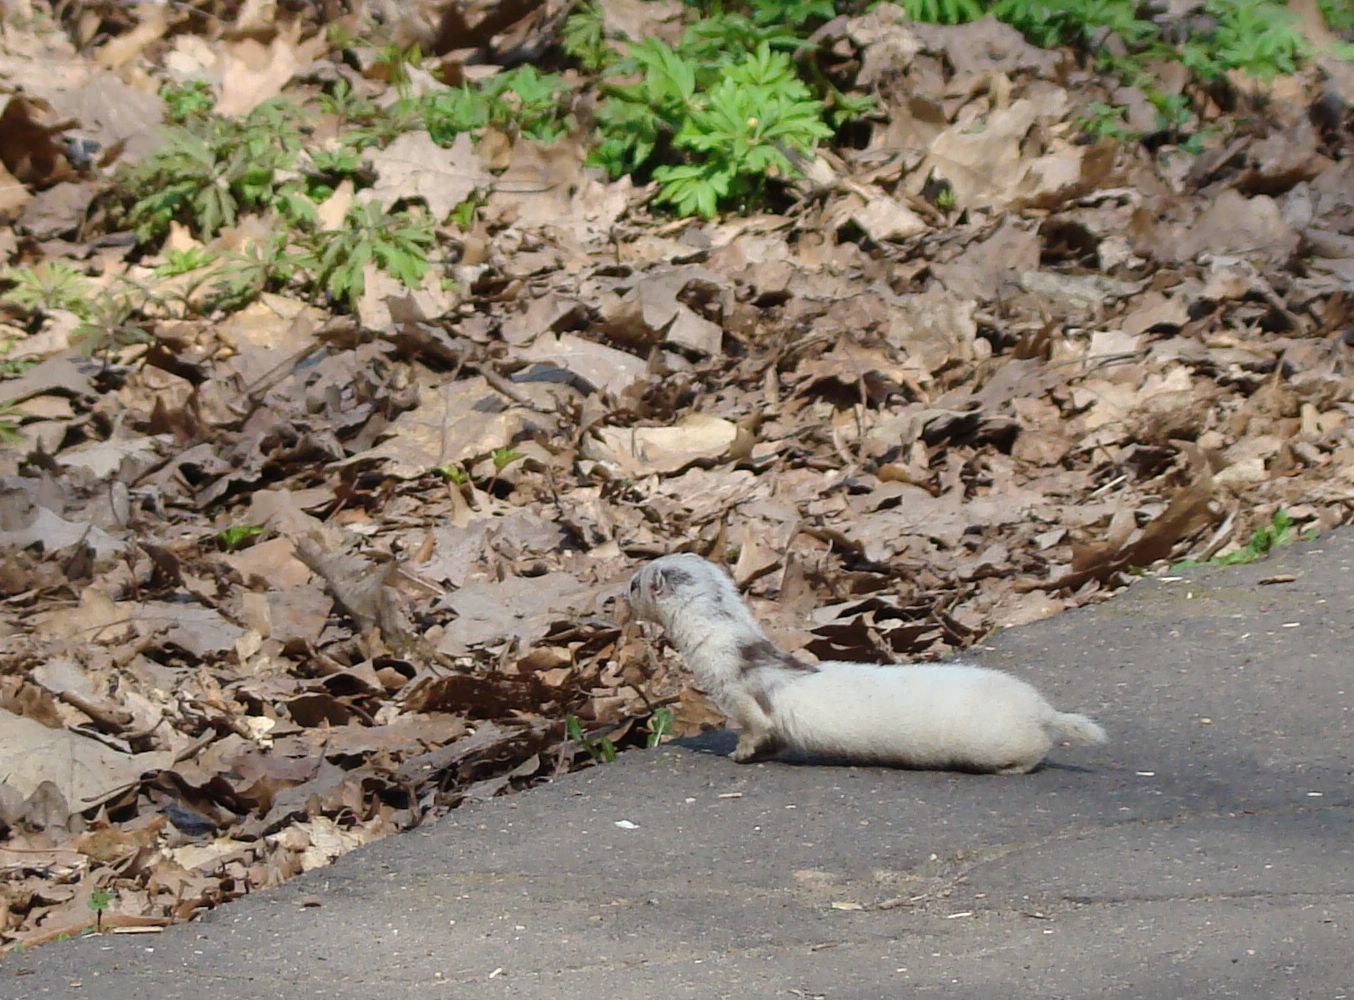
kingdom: Animalia
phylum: Chordata
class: Mammalia
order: Carnivora
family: Mustelidae
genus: Mustela
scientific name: Mustela nivalis
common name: Least weasel
